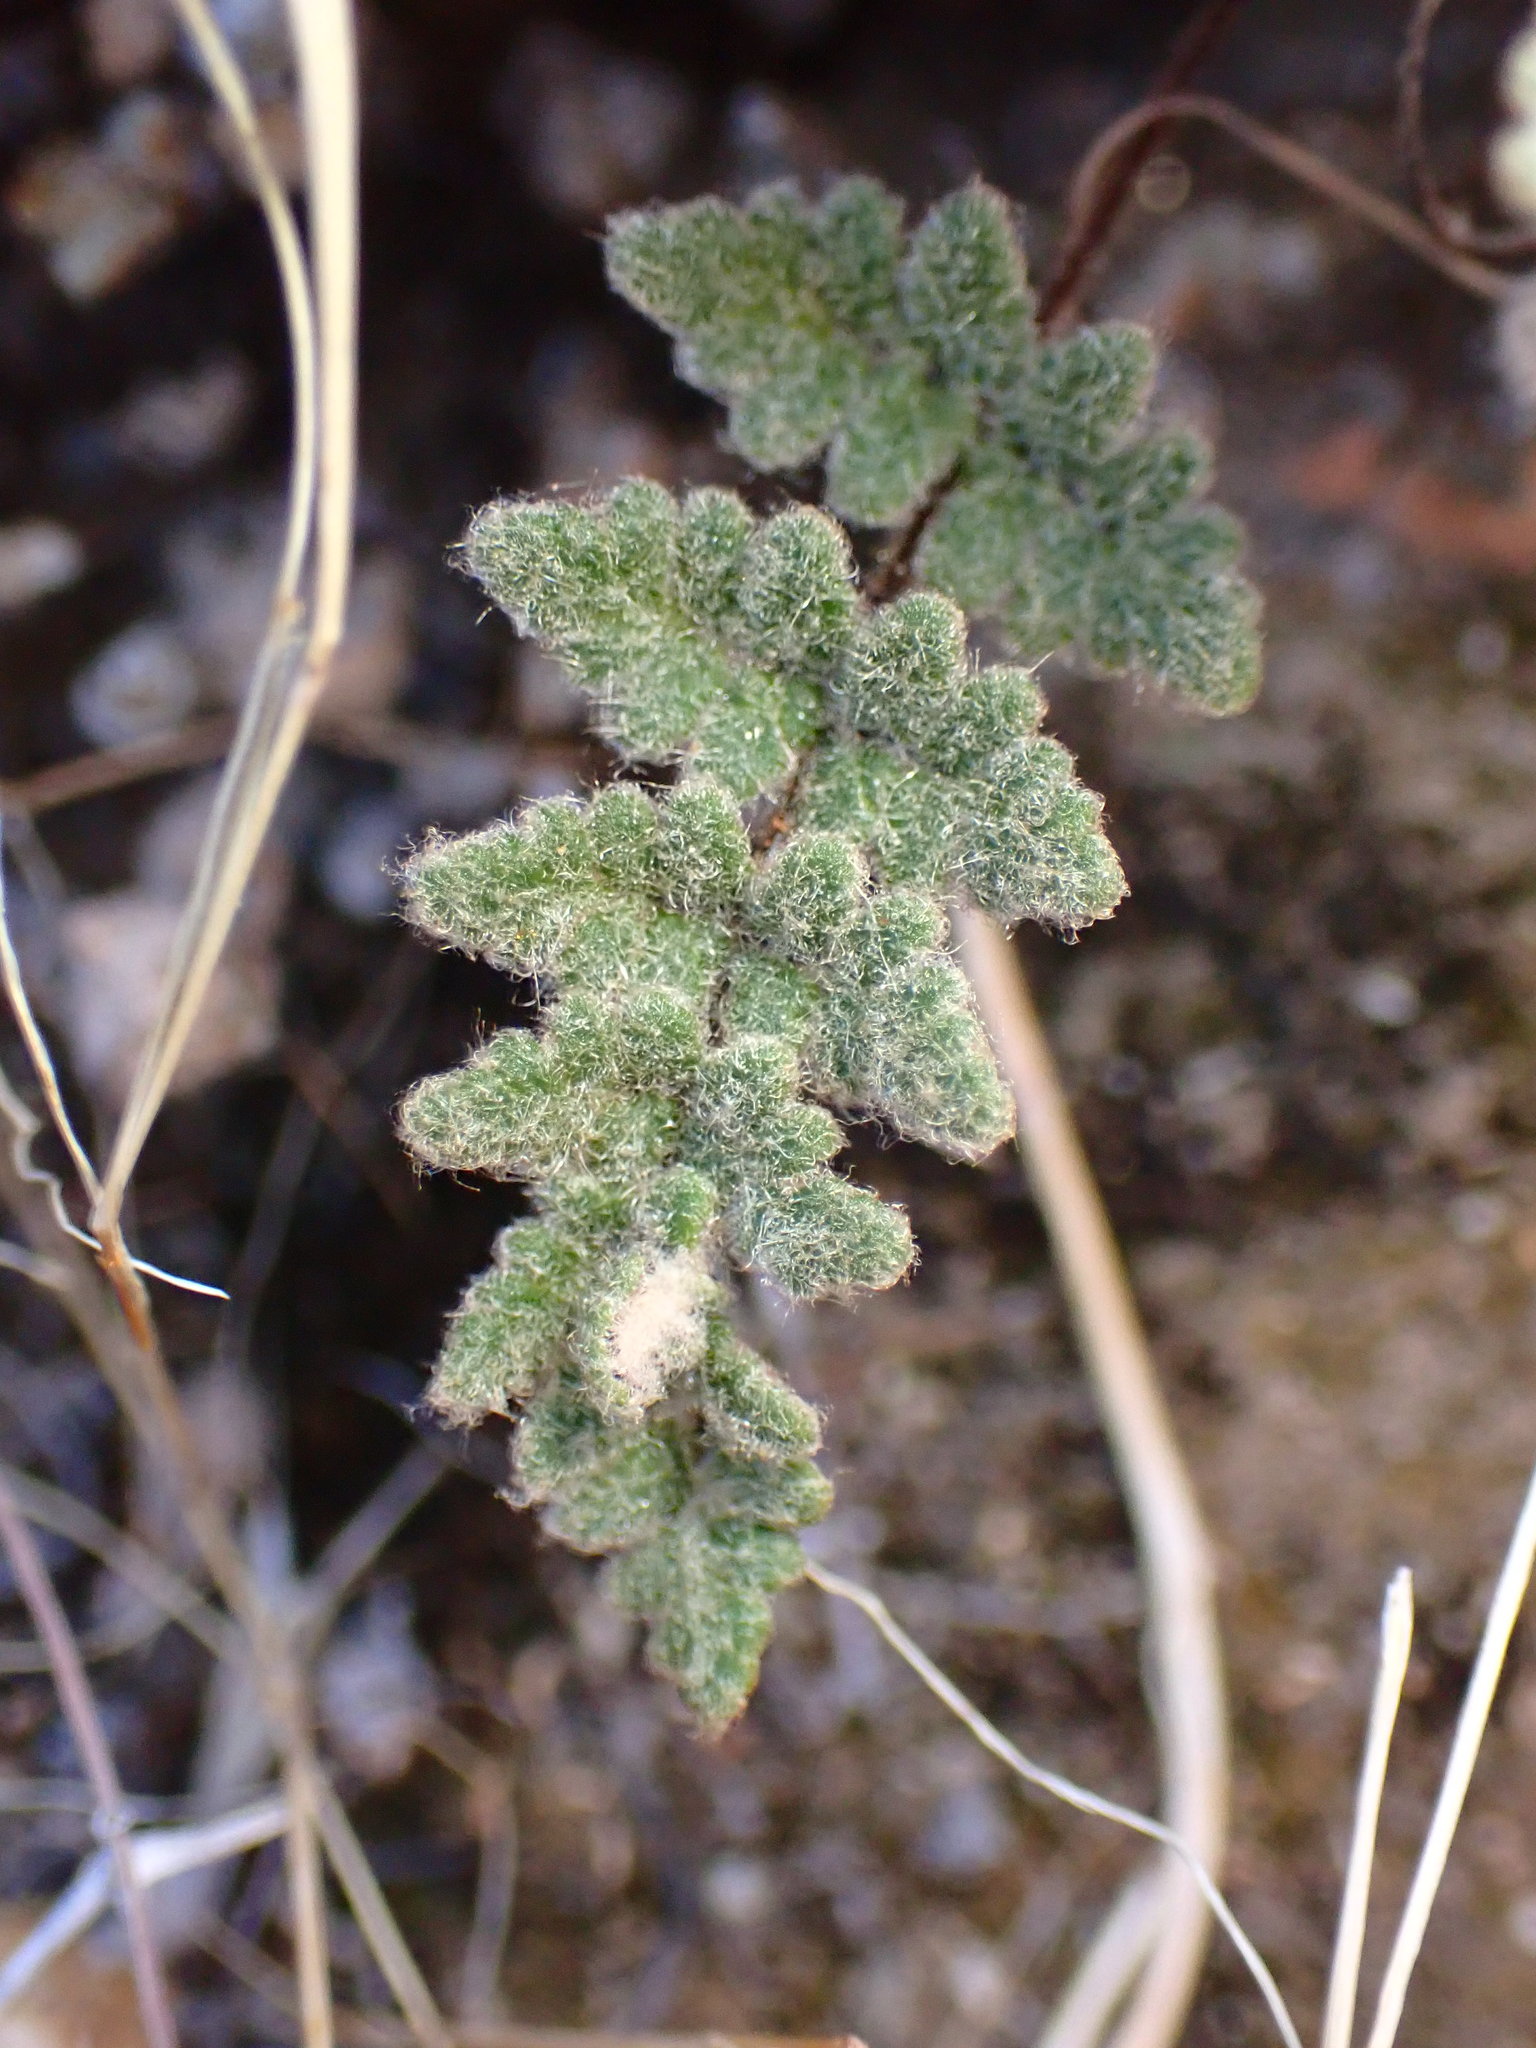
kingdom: Plantae
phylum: Tracheophyta
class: Polypodiopsida
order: Polypodiales
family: Pteridaceae
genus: Myriopteris
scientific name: Myriopteris parryi
